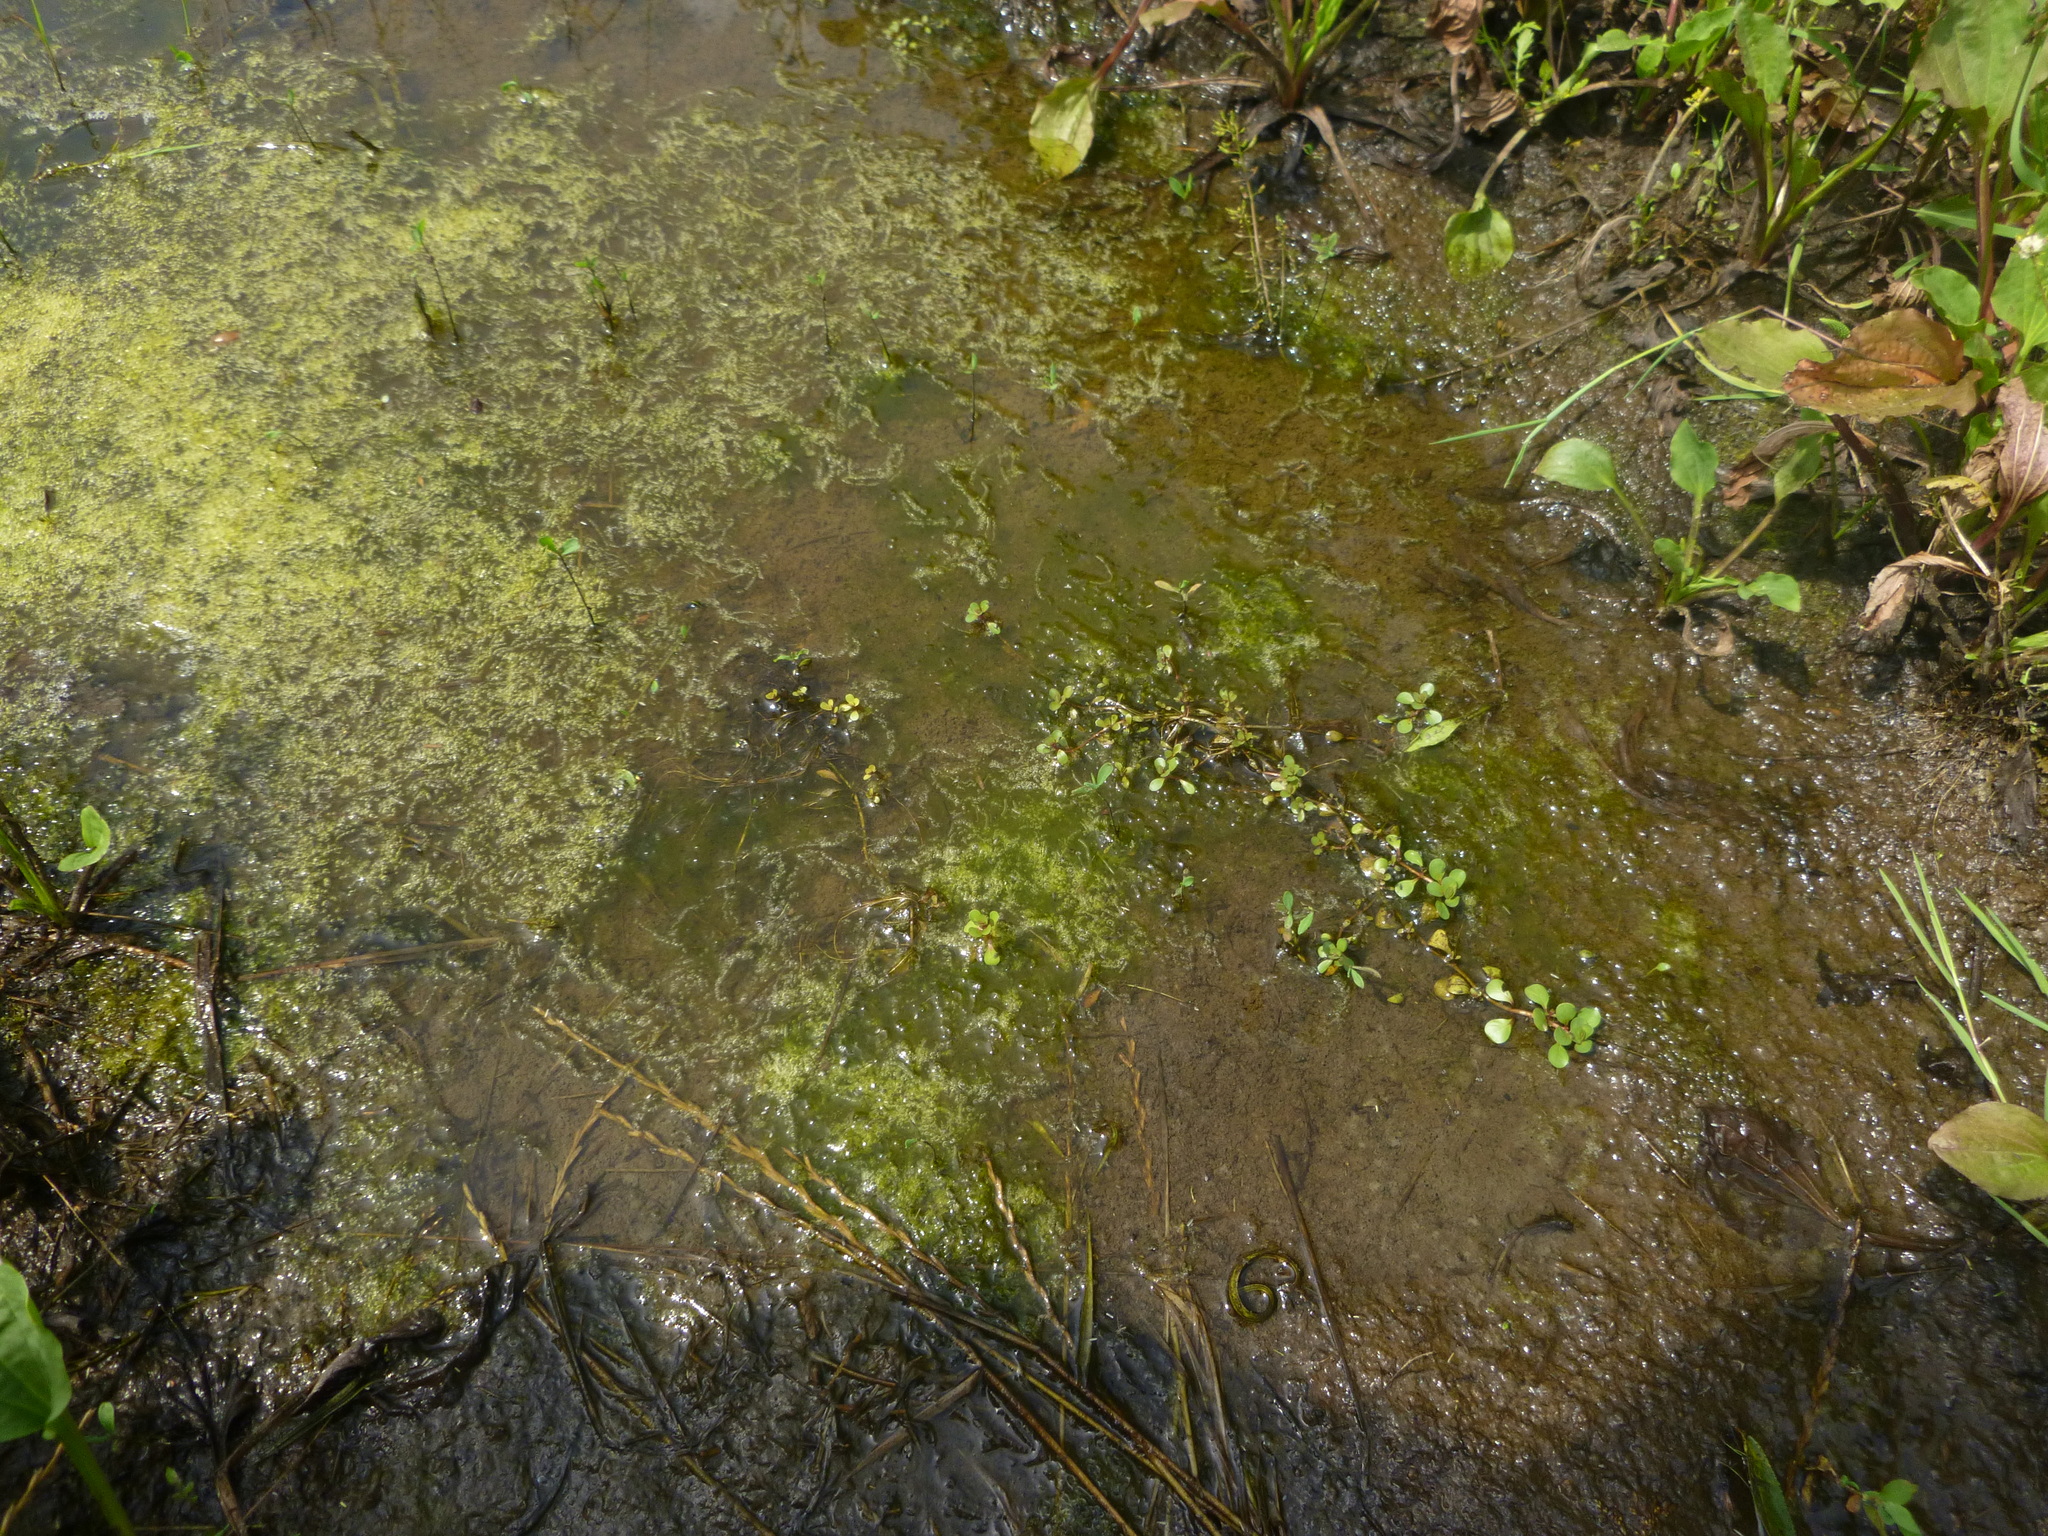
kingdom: Plantae
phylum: Tracheophyta
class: Magnoliopsida
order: Myrtales
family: Lythraceae
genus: Lythrum
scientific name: Lythrum portula
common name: Water purslane
